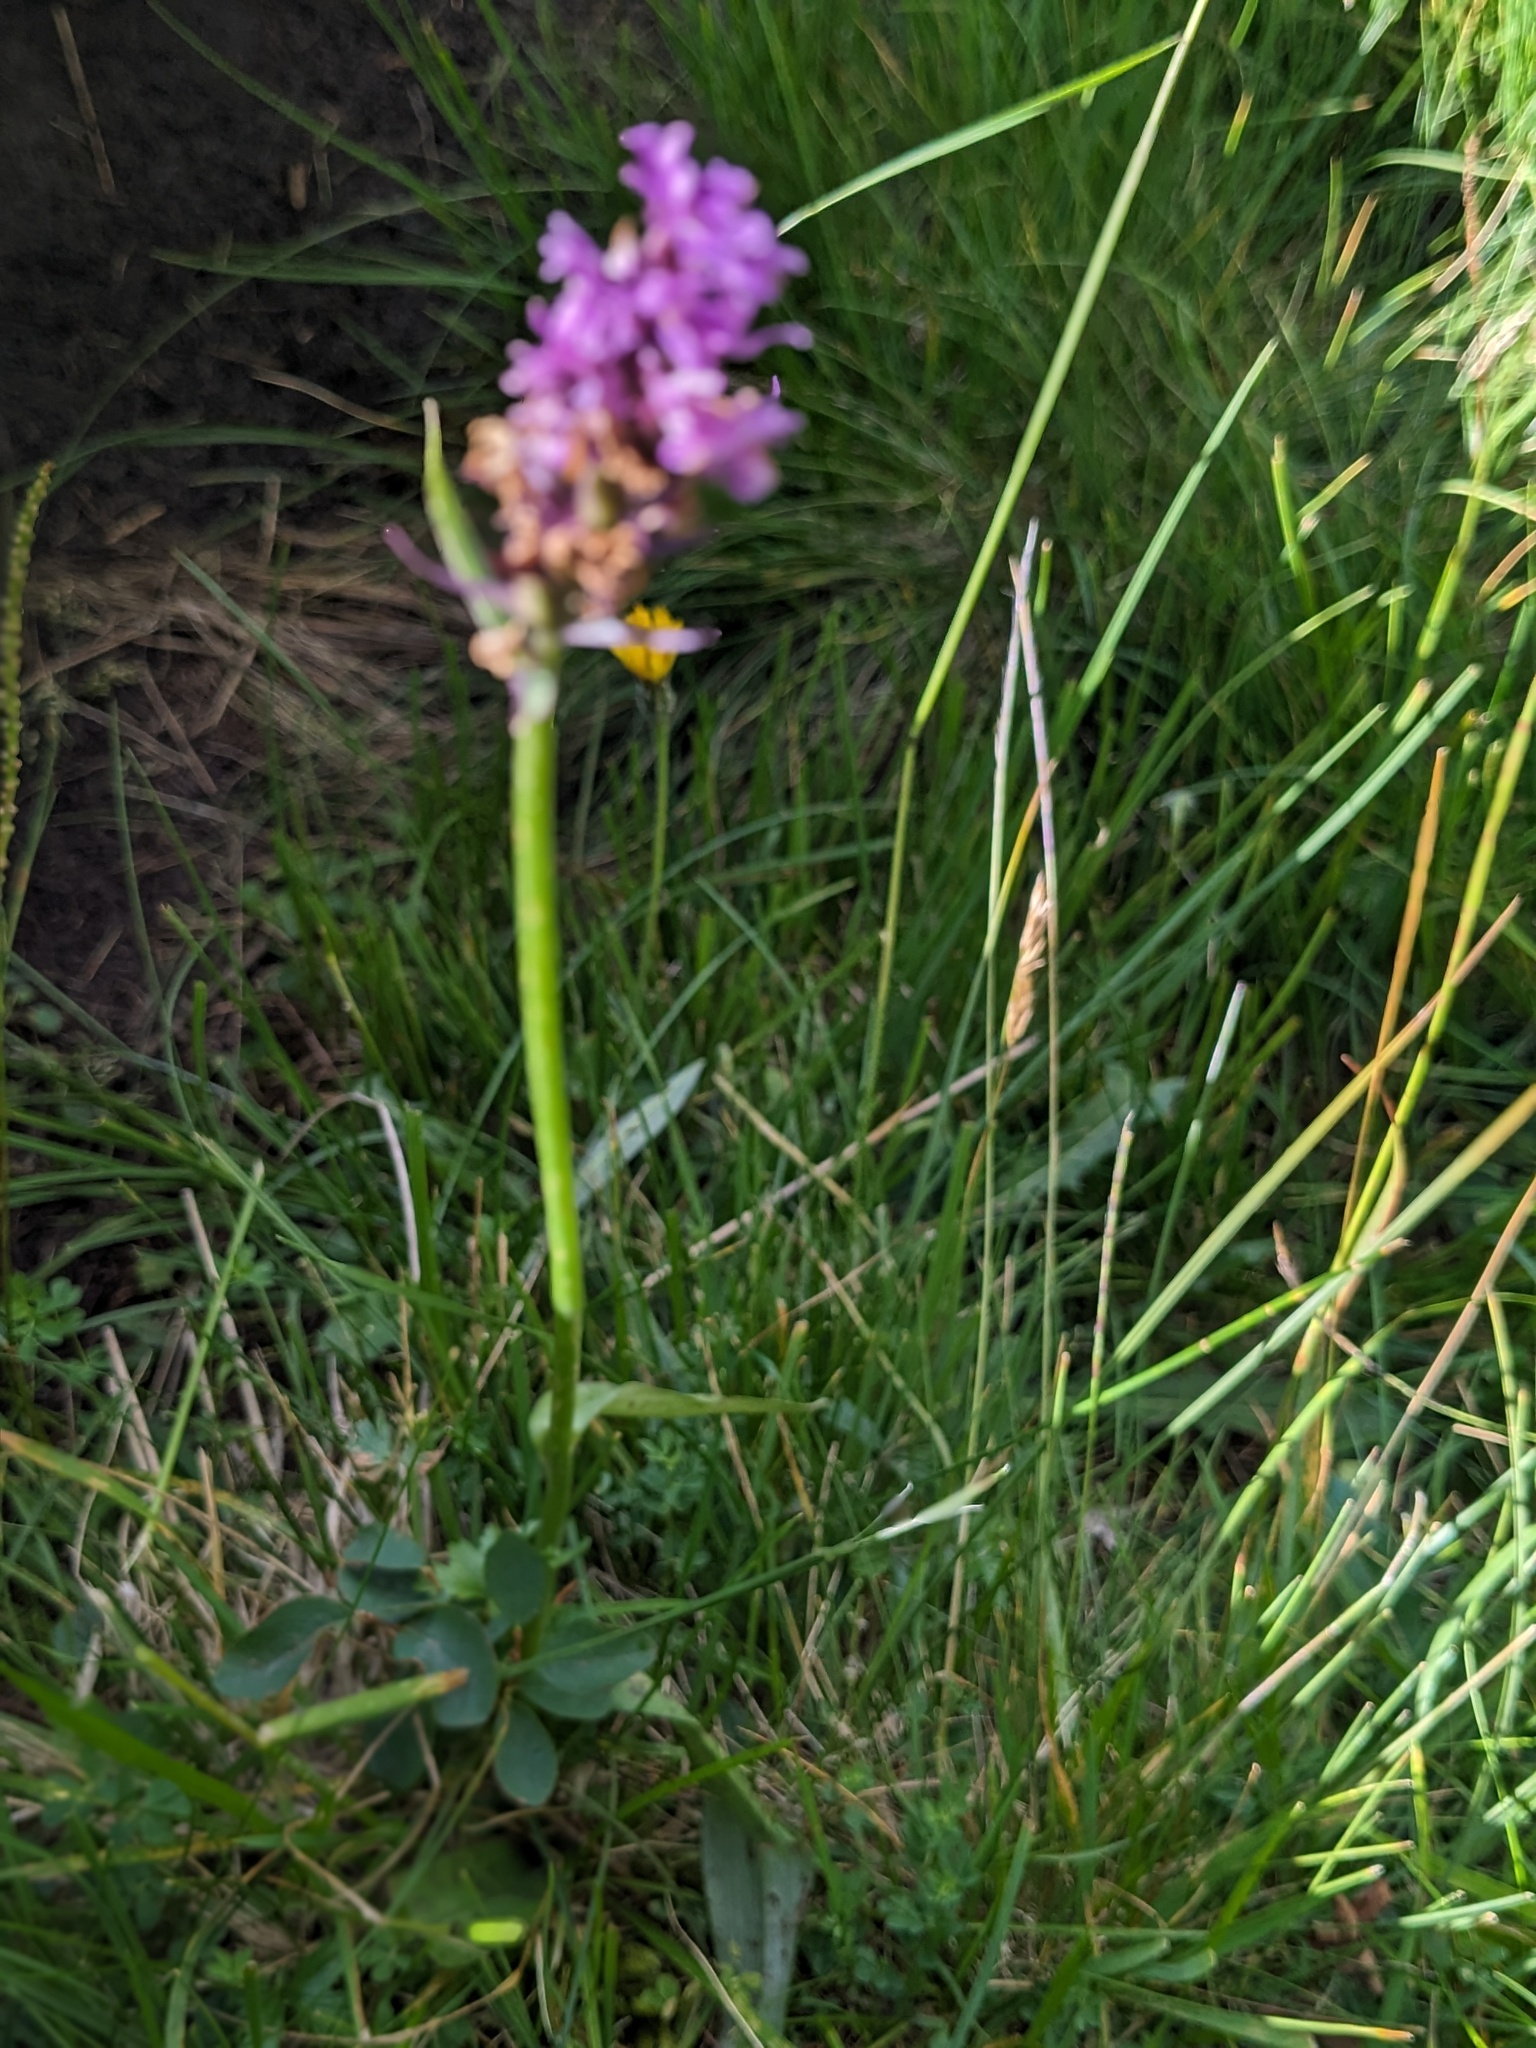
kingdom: Plantae
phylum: Tracheophyta
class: Liliopsida
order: Asparagales
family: Orchidaceae
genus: Dactylorhiza
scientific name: Dactylorhiza maculata
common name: Heath spotted-orchid
